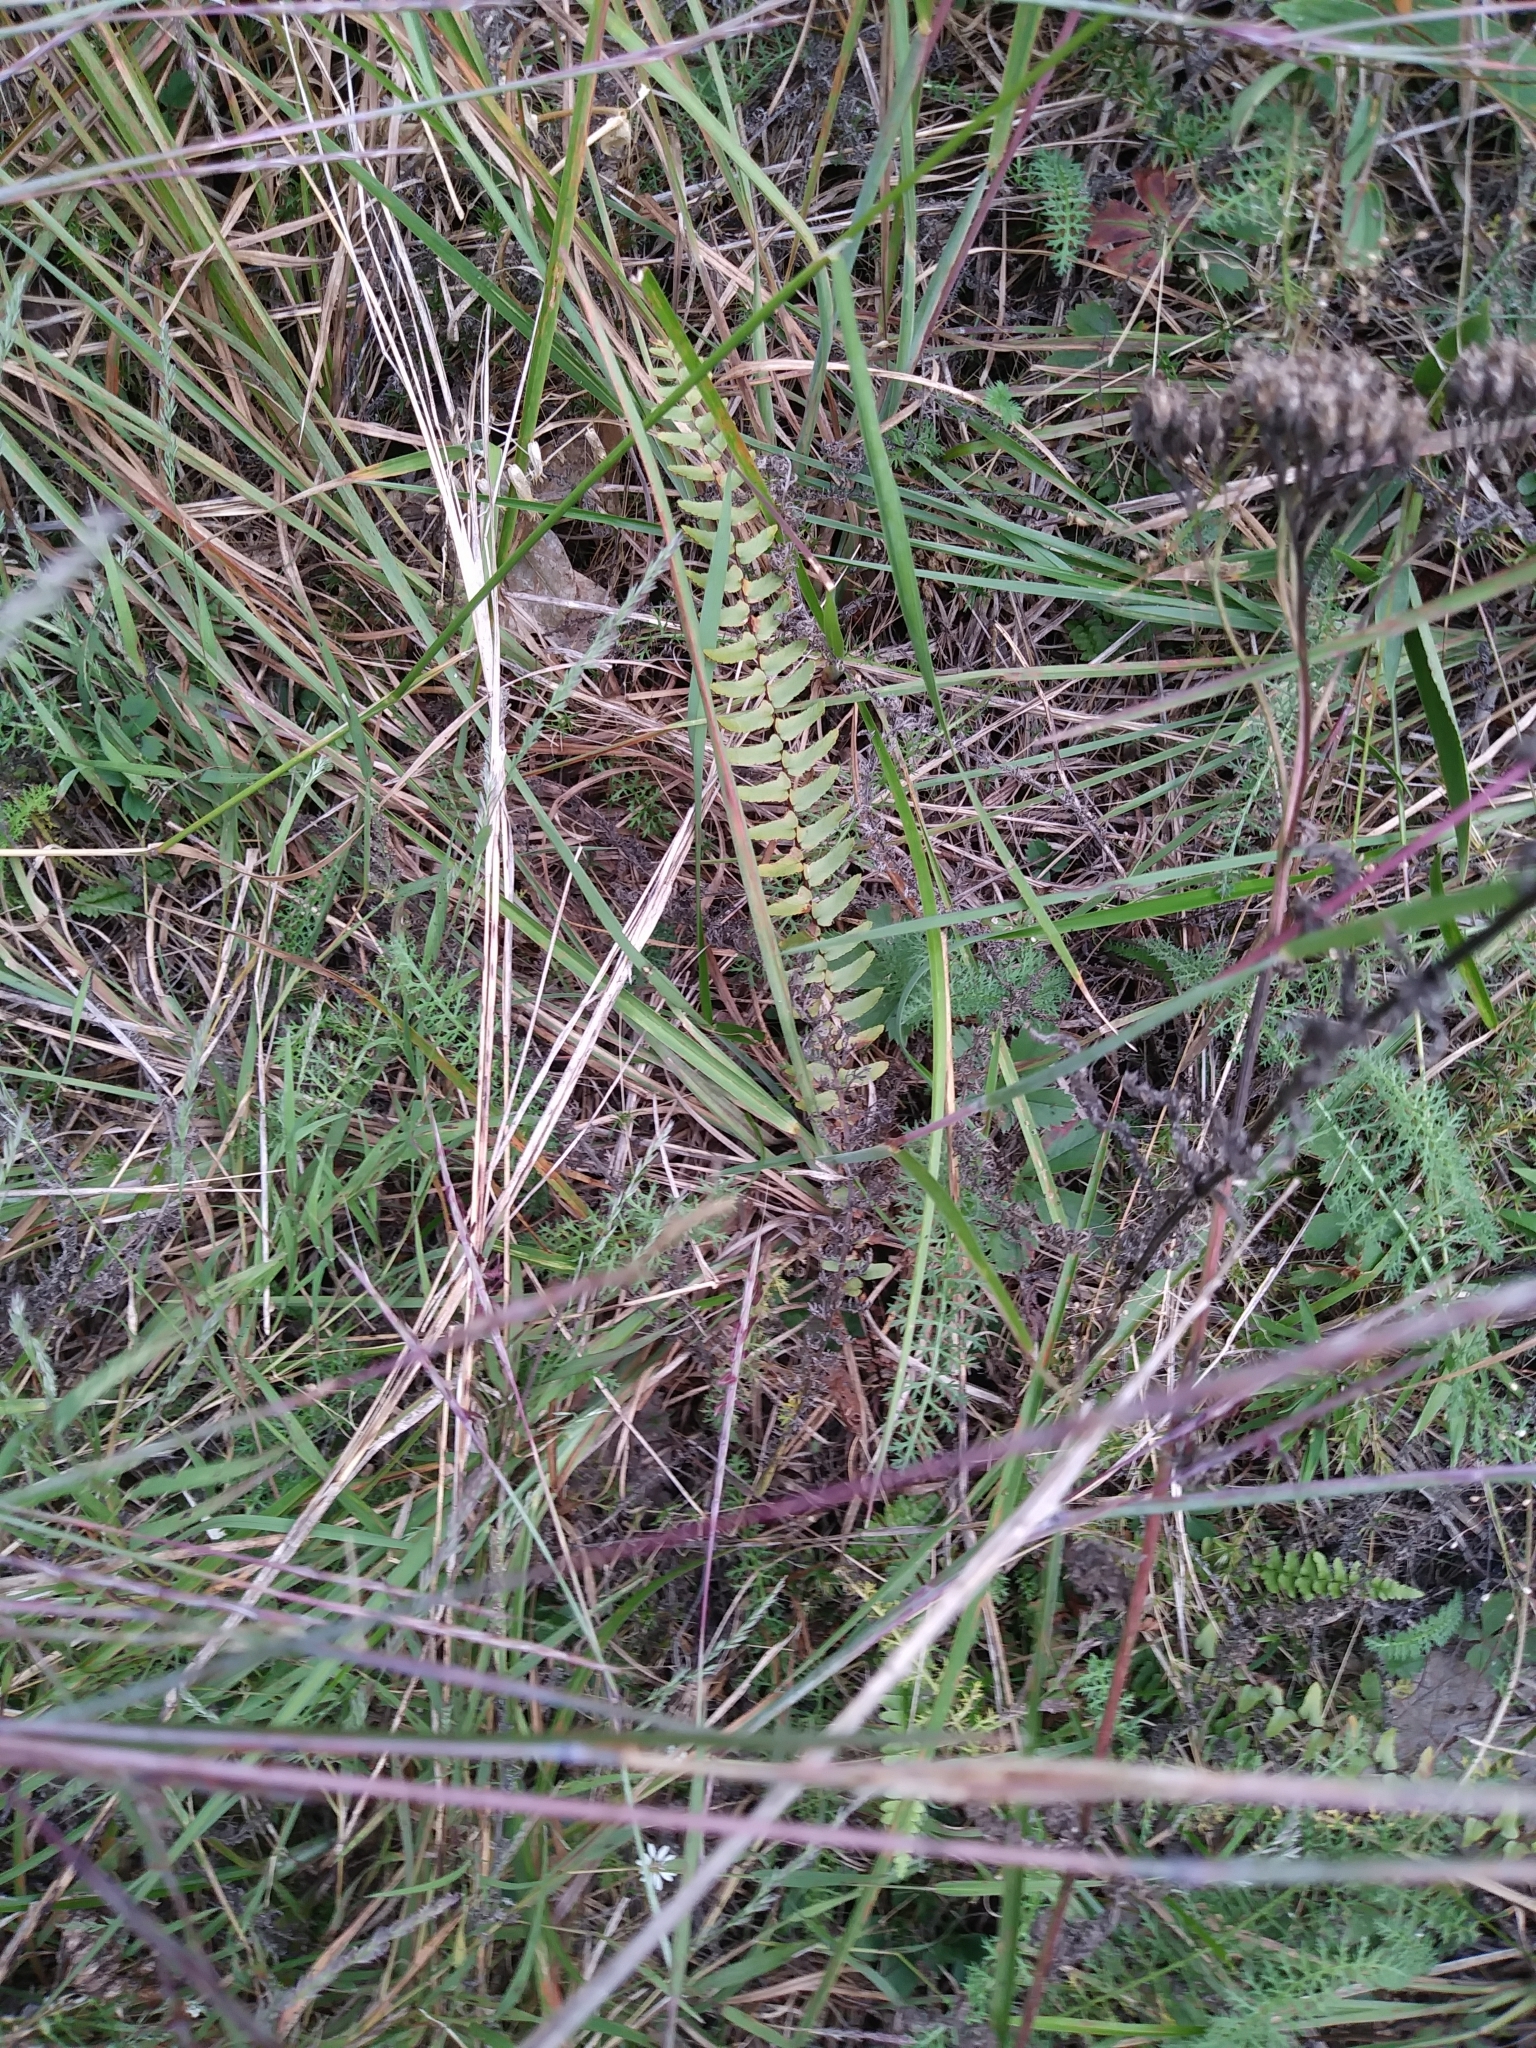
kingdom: Plantae
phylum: Tracheophyta
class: Polypodiopsida
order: Polypodiales
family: Aspleniaceae
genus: Asplenium
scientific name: Asplenium platyneuron
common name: Ebony spleenwort
